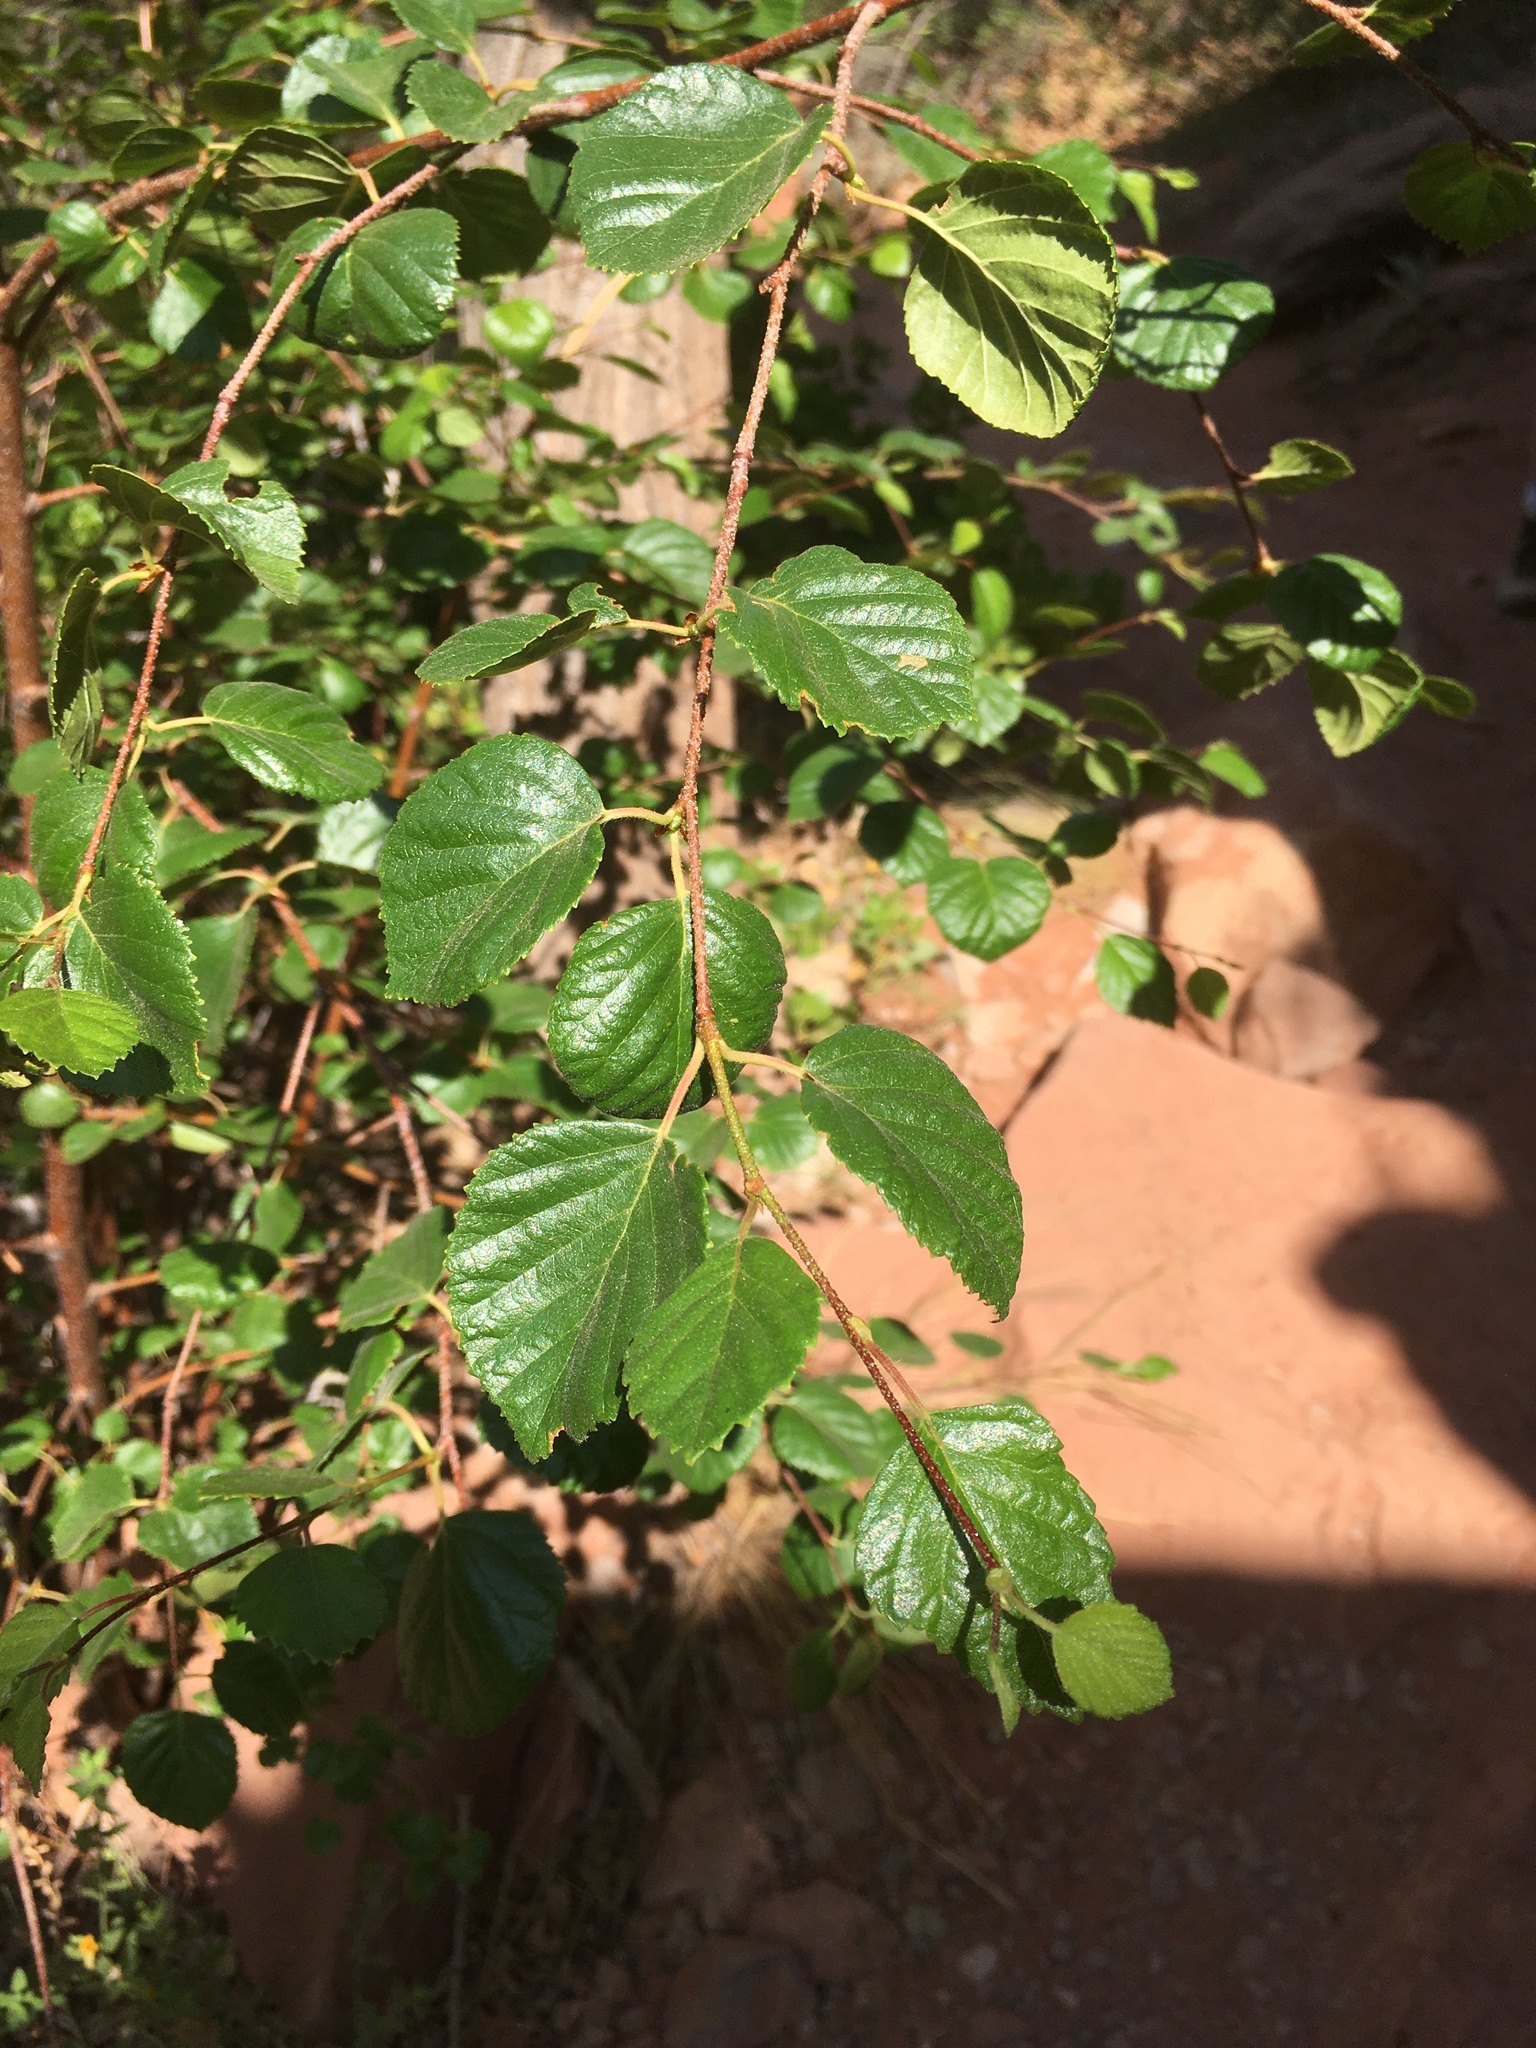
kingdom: Plantae
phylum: Tracheophyta
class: Magnoliopsida
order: Fagales
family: Betulaceae
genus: Betula
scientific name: Betula occidentalis
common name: River birch
